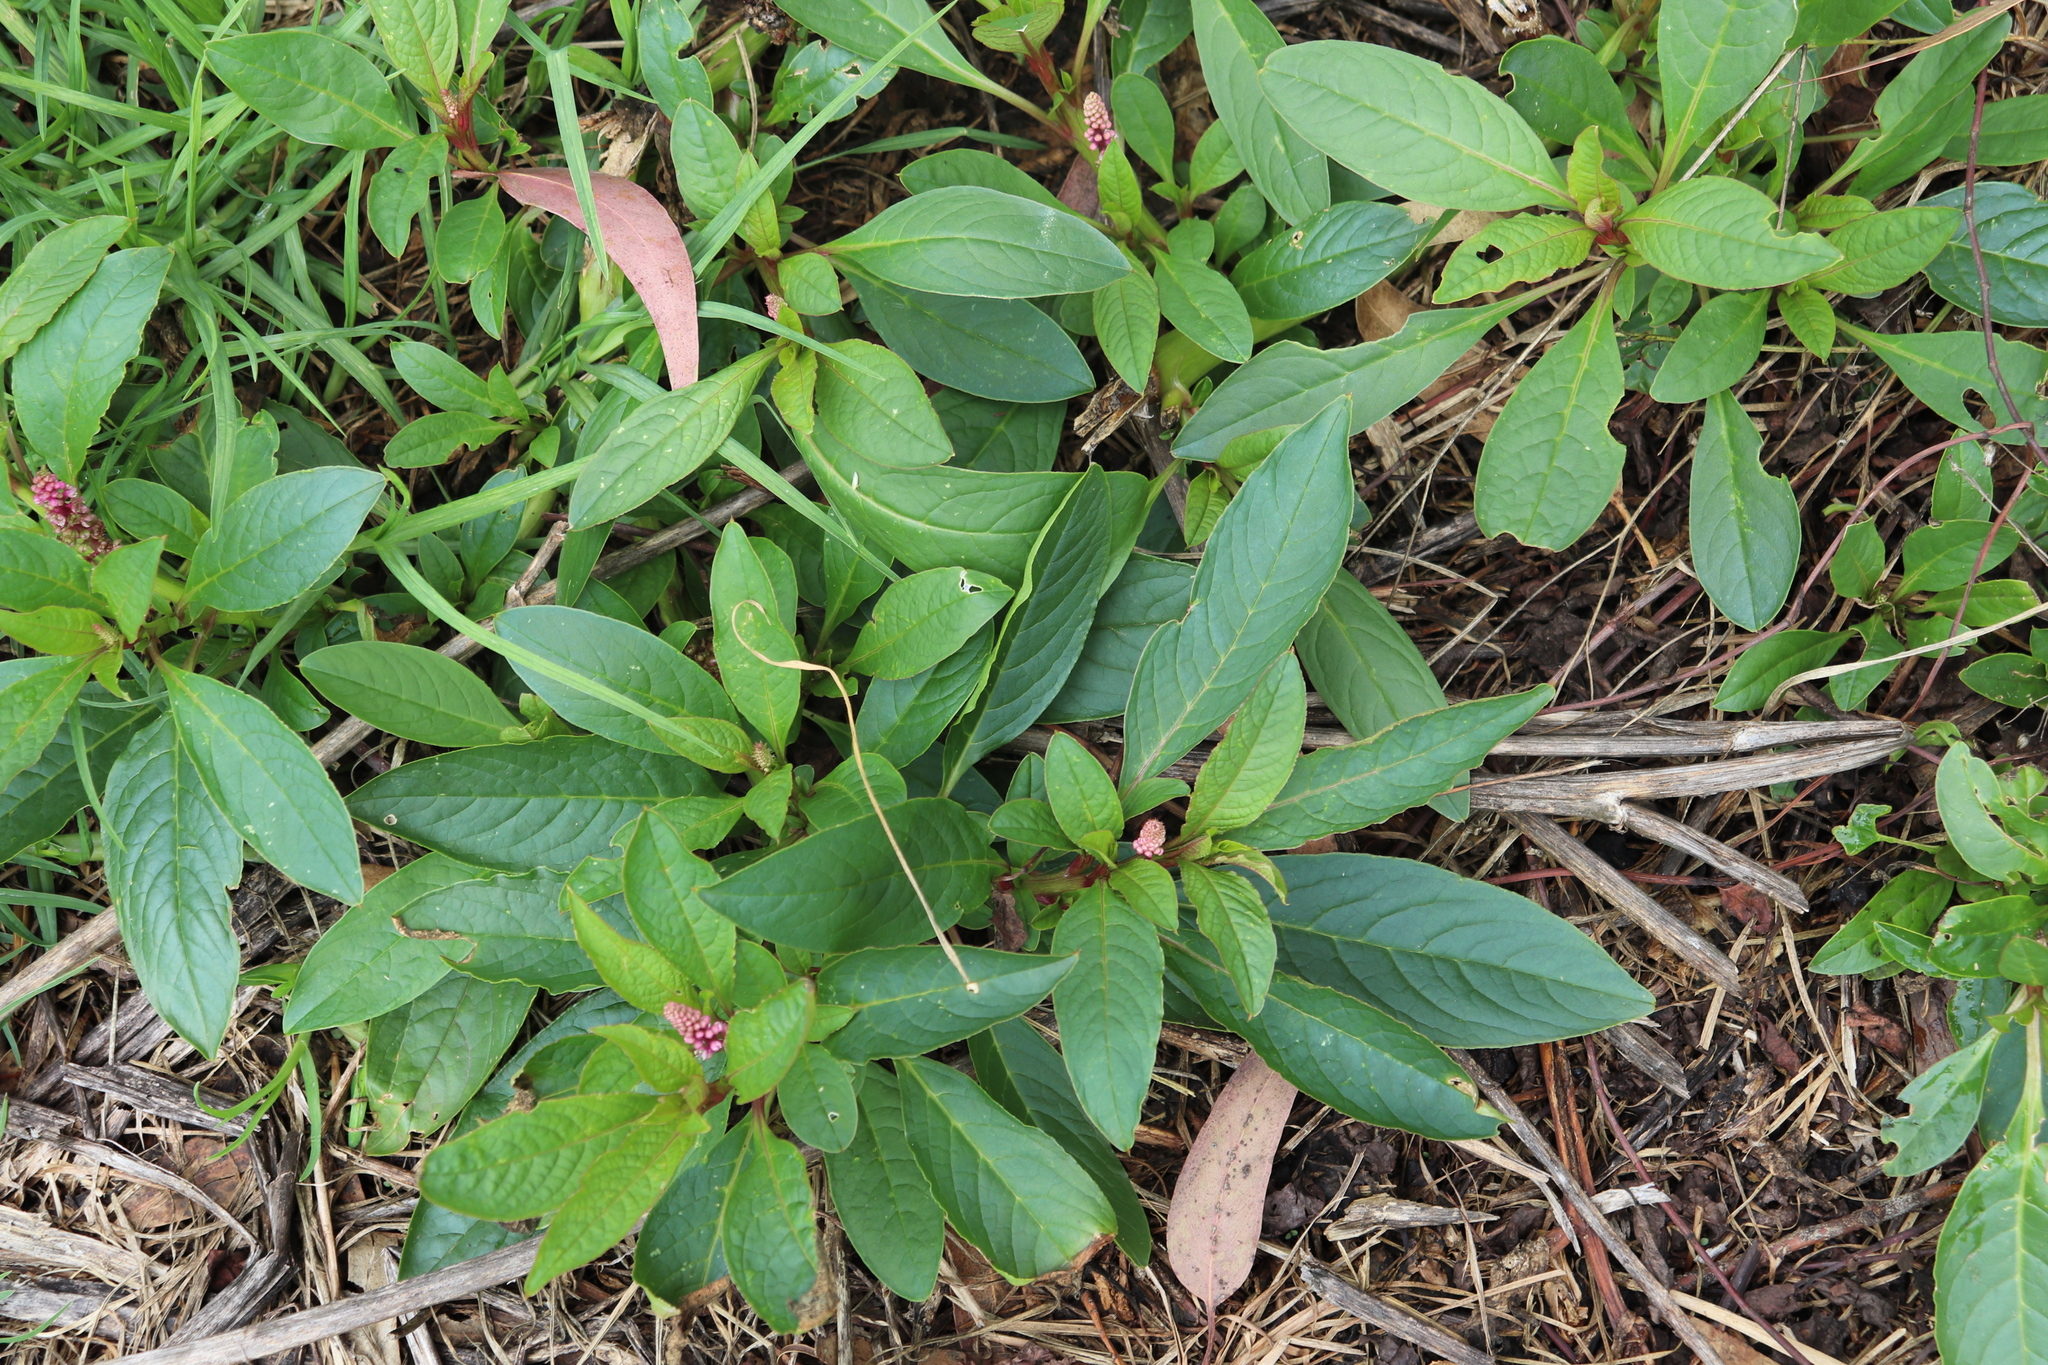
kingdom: Plantae
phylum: Tracheophyta
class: Magnoliopsida
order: Caryophyllales
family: Phytolaccaceae
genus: Phytolacca
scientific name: Phytolacca bogotensis
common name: Southern pokeweed
